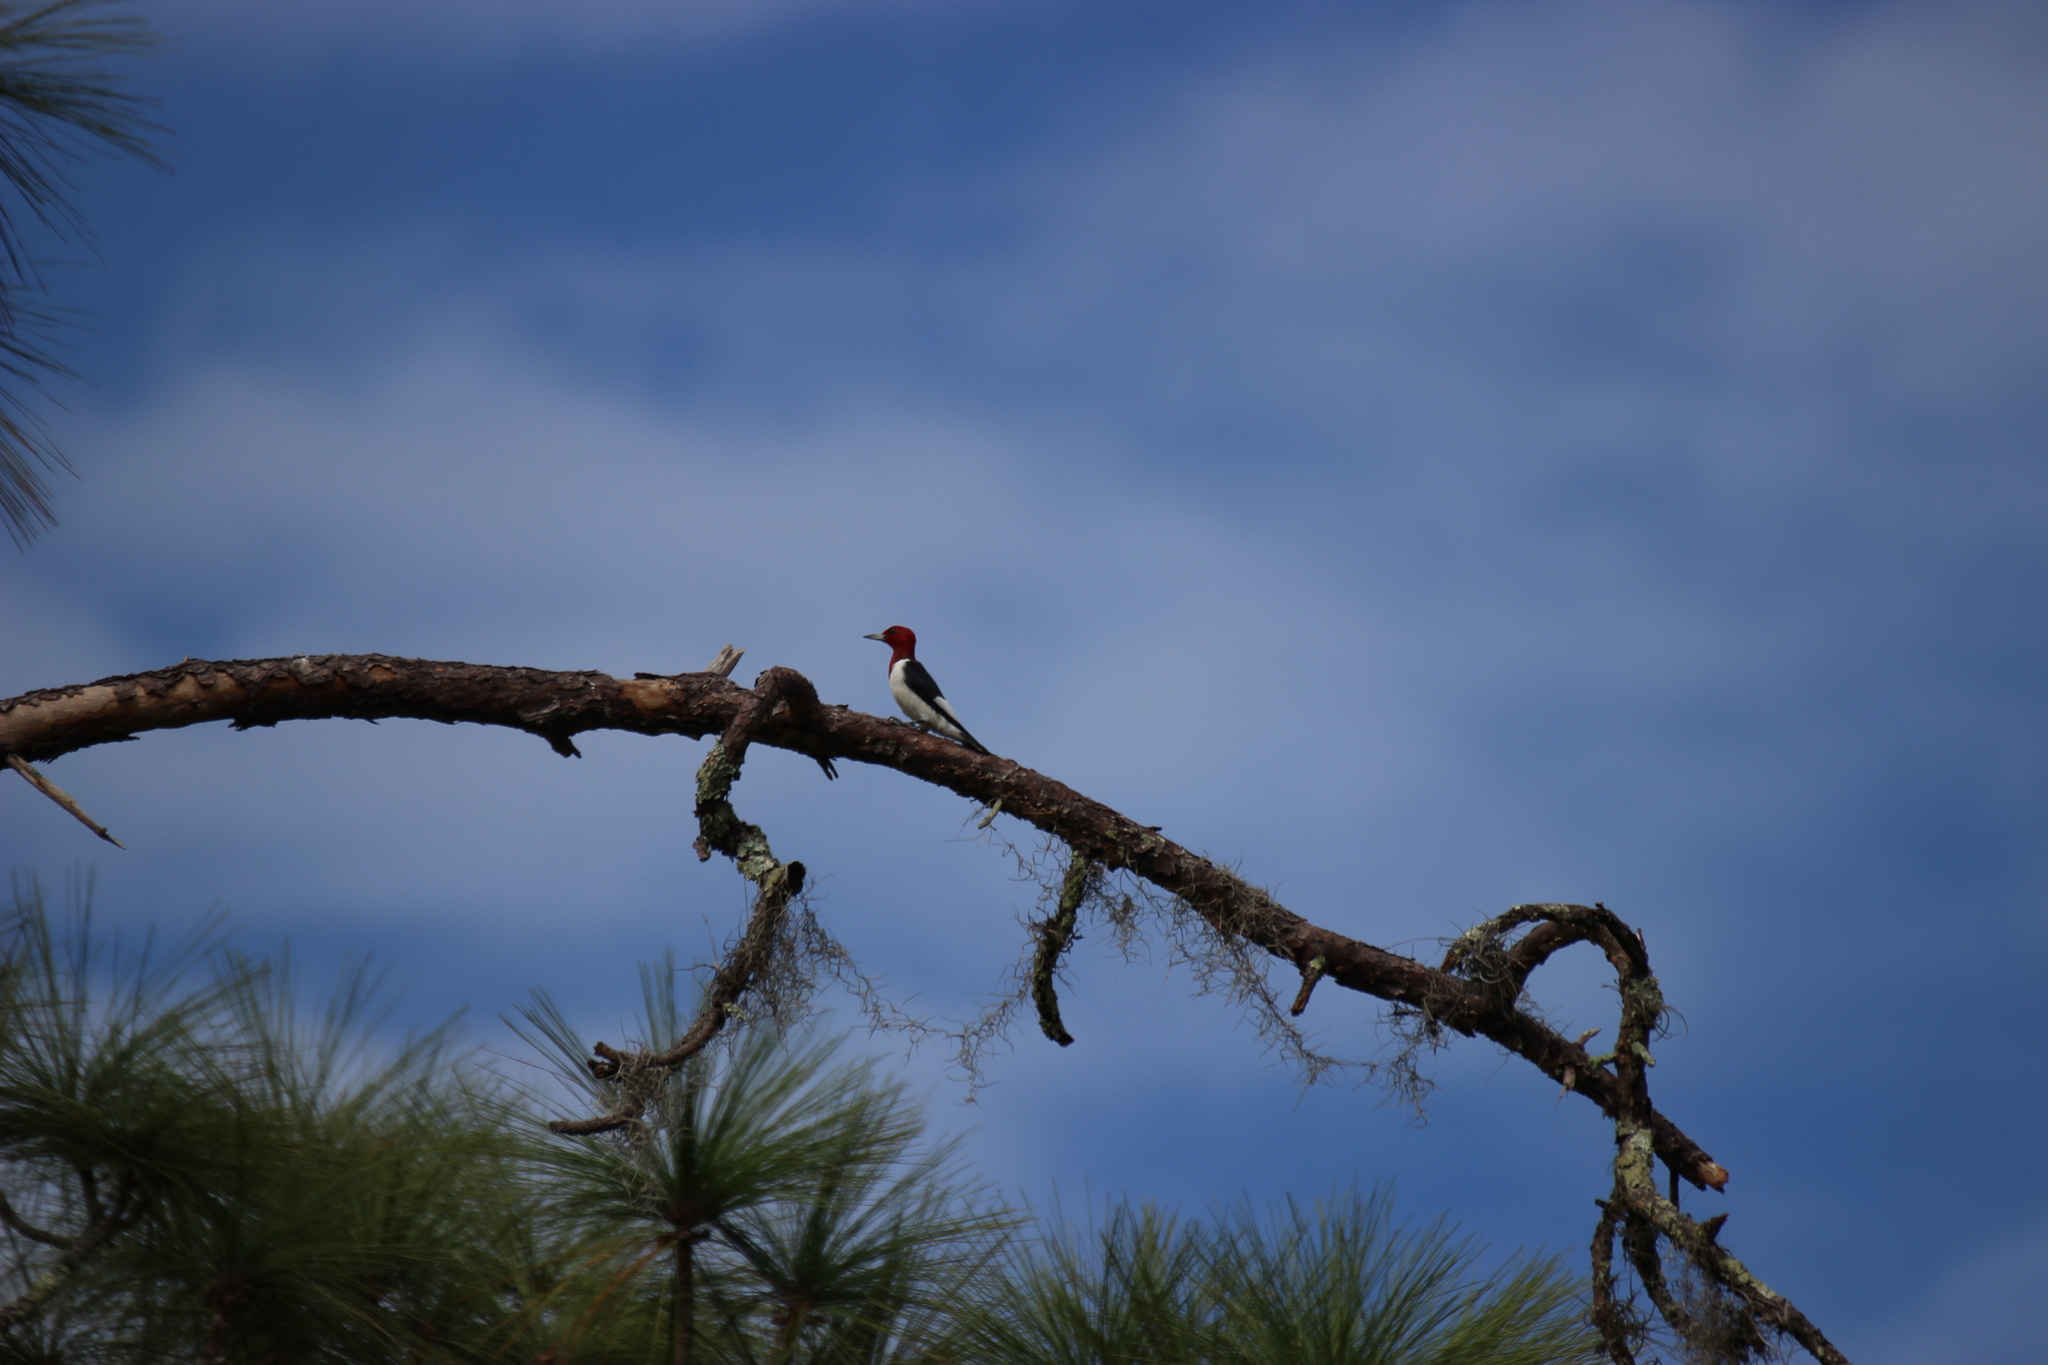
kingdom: Animalia
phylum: Chordata
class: Aves
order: Piciformes
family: Picidae
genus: Melanerpes
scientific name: Melanerpes erythrocephalus
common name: Red-headed woodpecker
